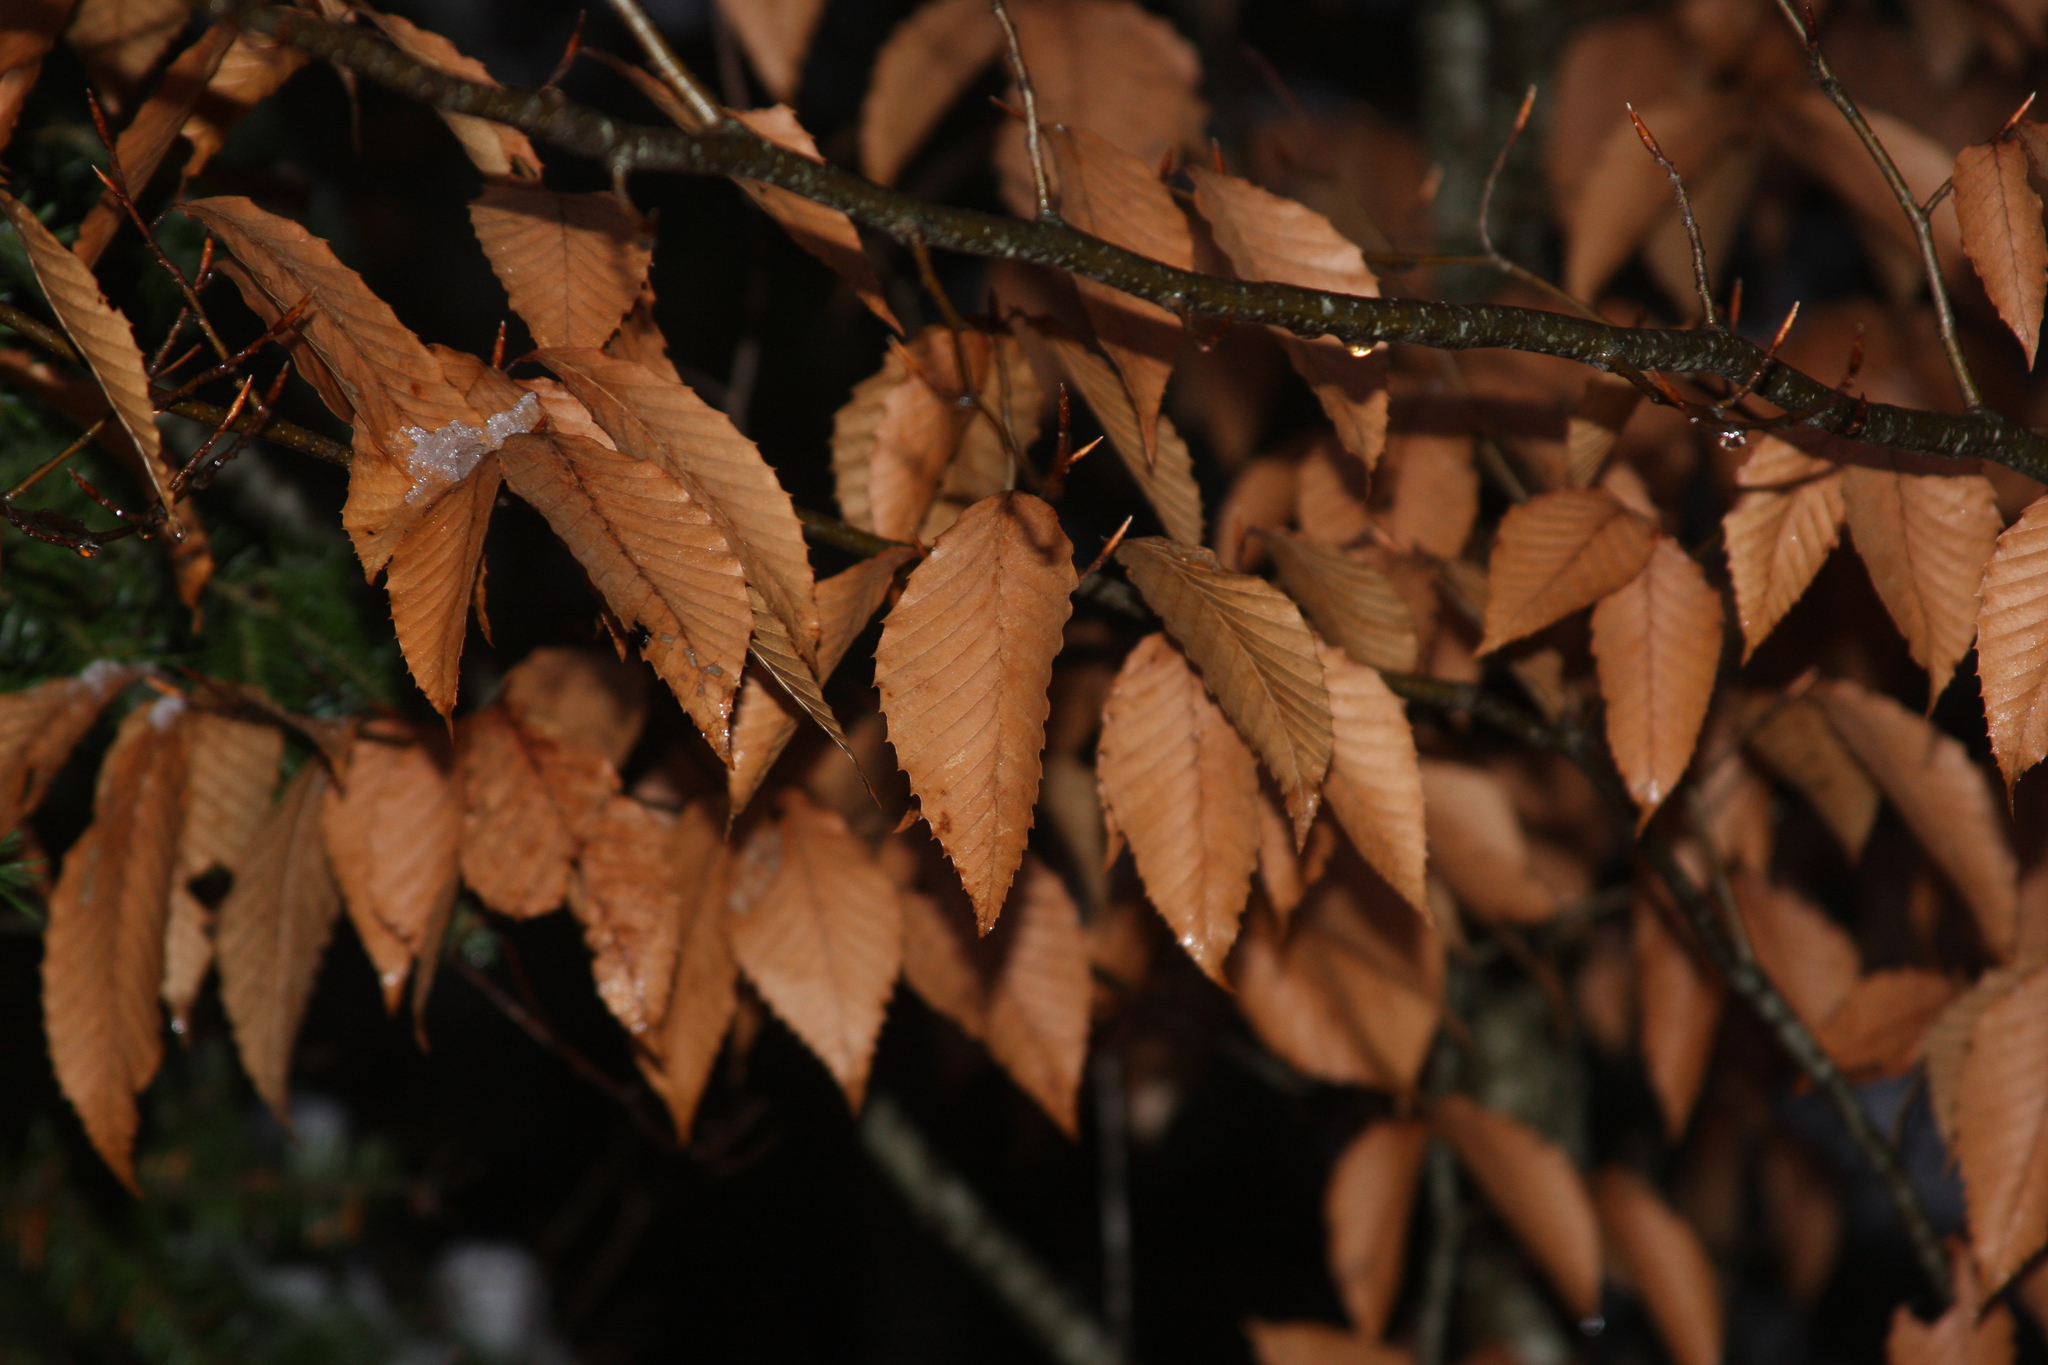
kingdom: Plantae
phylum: Tracheophyta
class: Magnoliopsida
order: Fagales
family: Fagaceae
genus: Fagus
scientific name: Fagus grandifolia
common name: American beech
